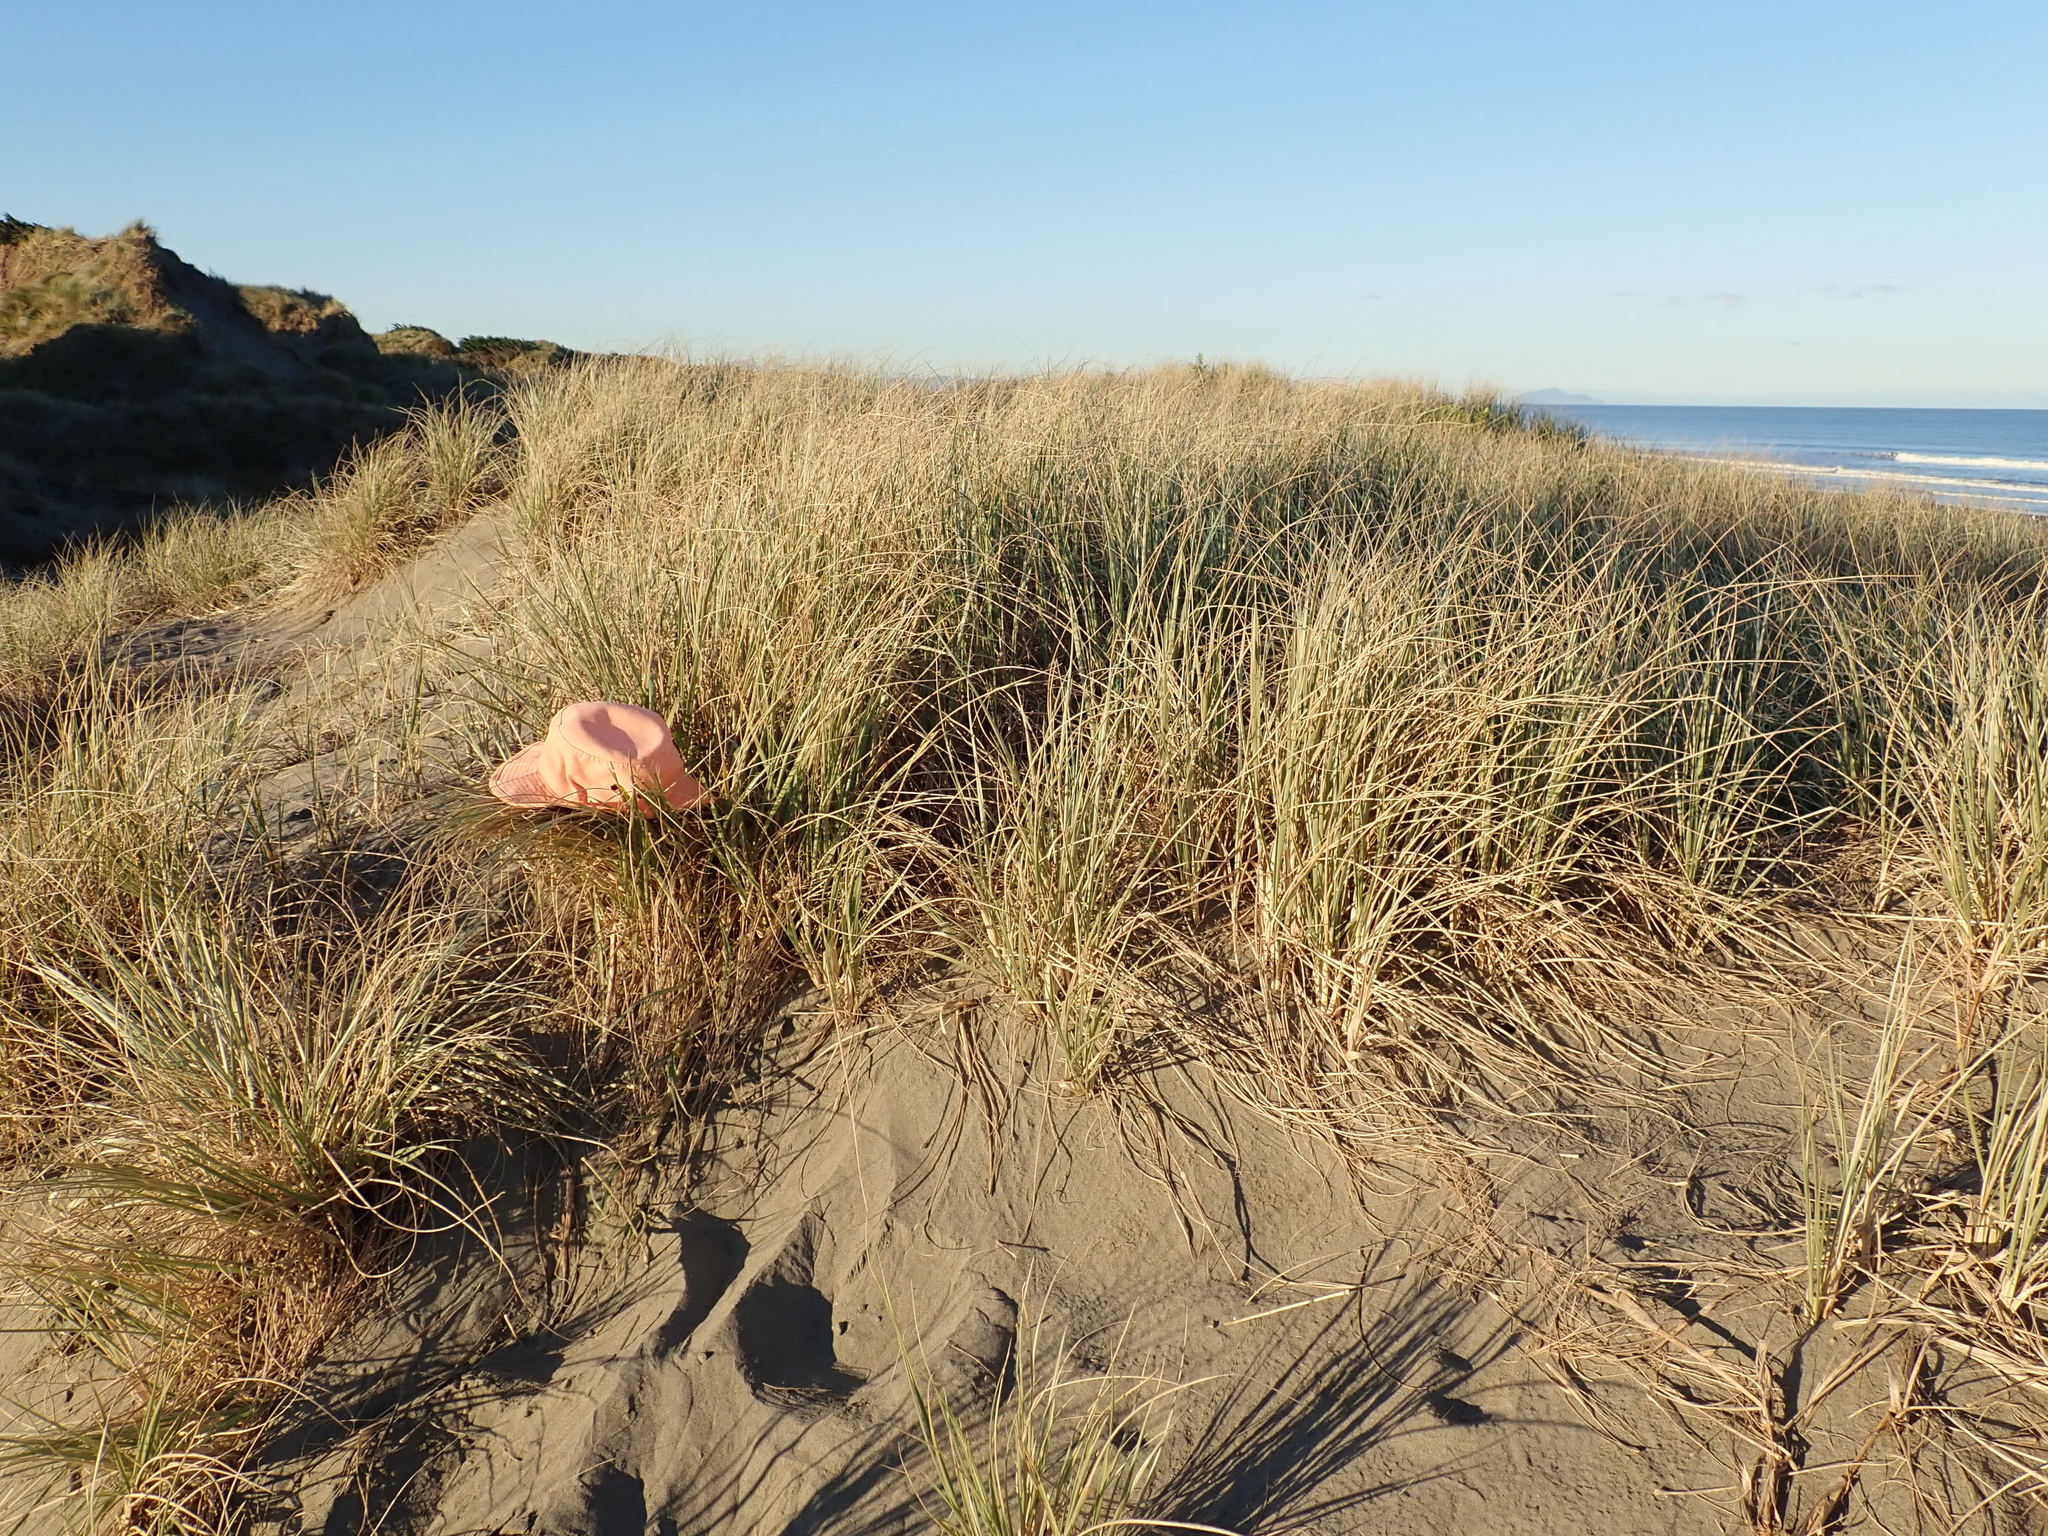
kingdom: Animalia
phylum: Arthropoda
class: Arachnida
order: Araneae
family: Thomisidae
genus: Sidymella
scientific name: Sidymella trapezia
